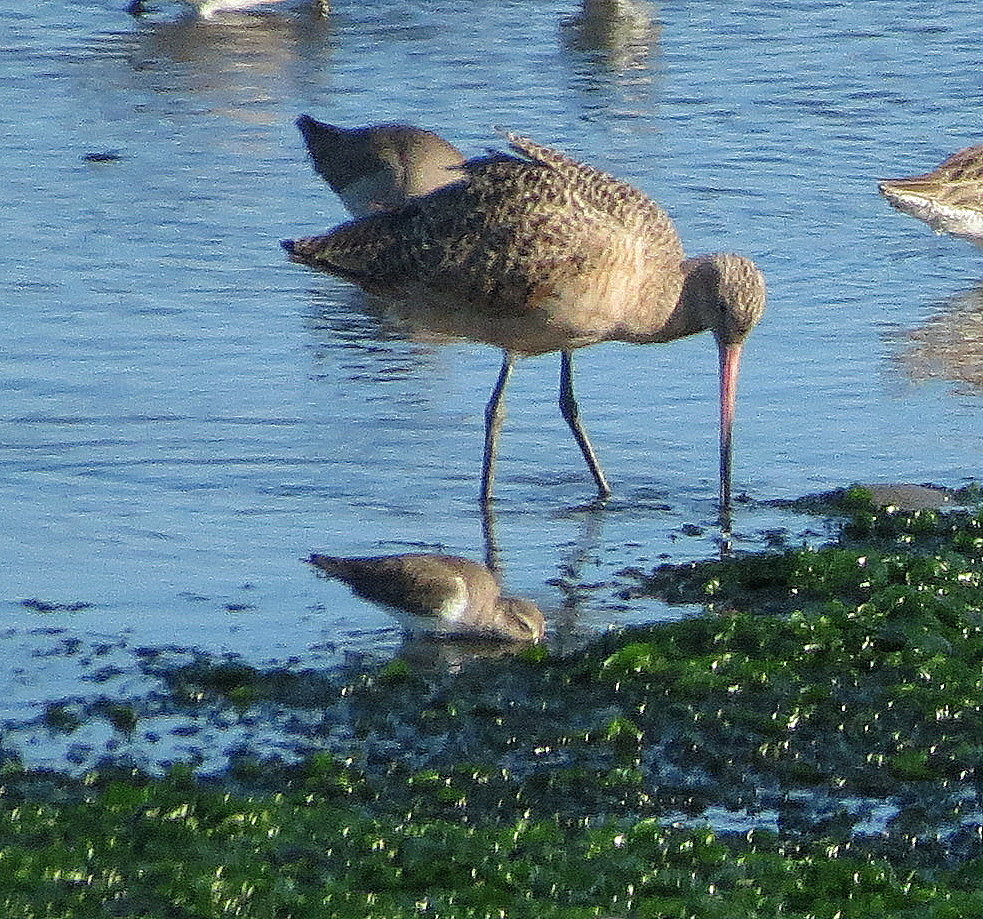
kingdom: Animalia
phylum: Chordata
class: Aves
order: Charadriiformes
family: Scolopacidae
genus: Limosa
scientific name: Limosa fedoa
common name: Marbled godwit
